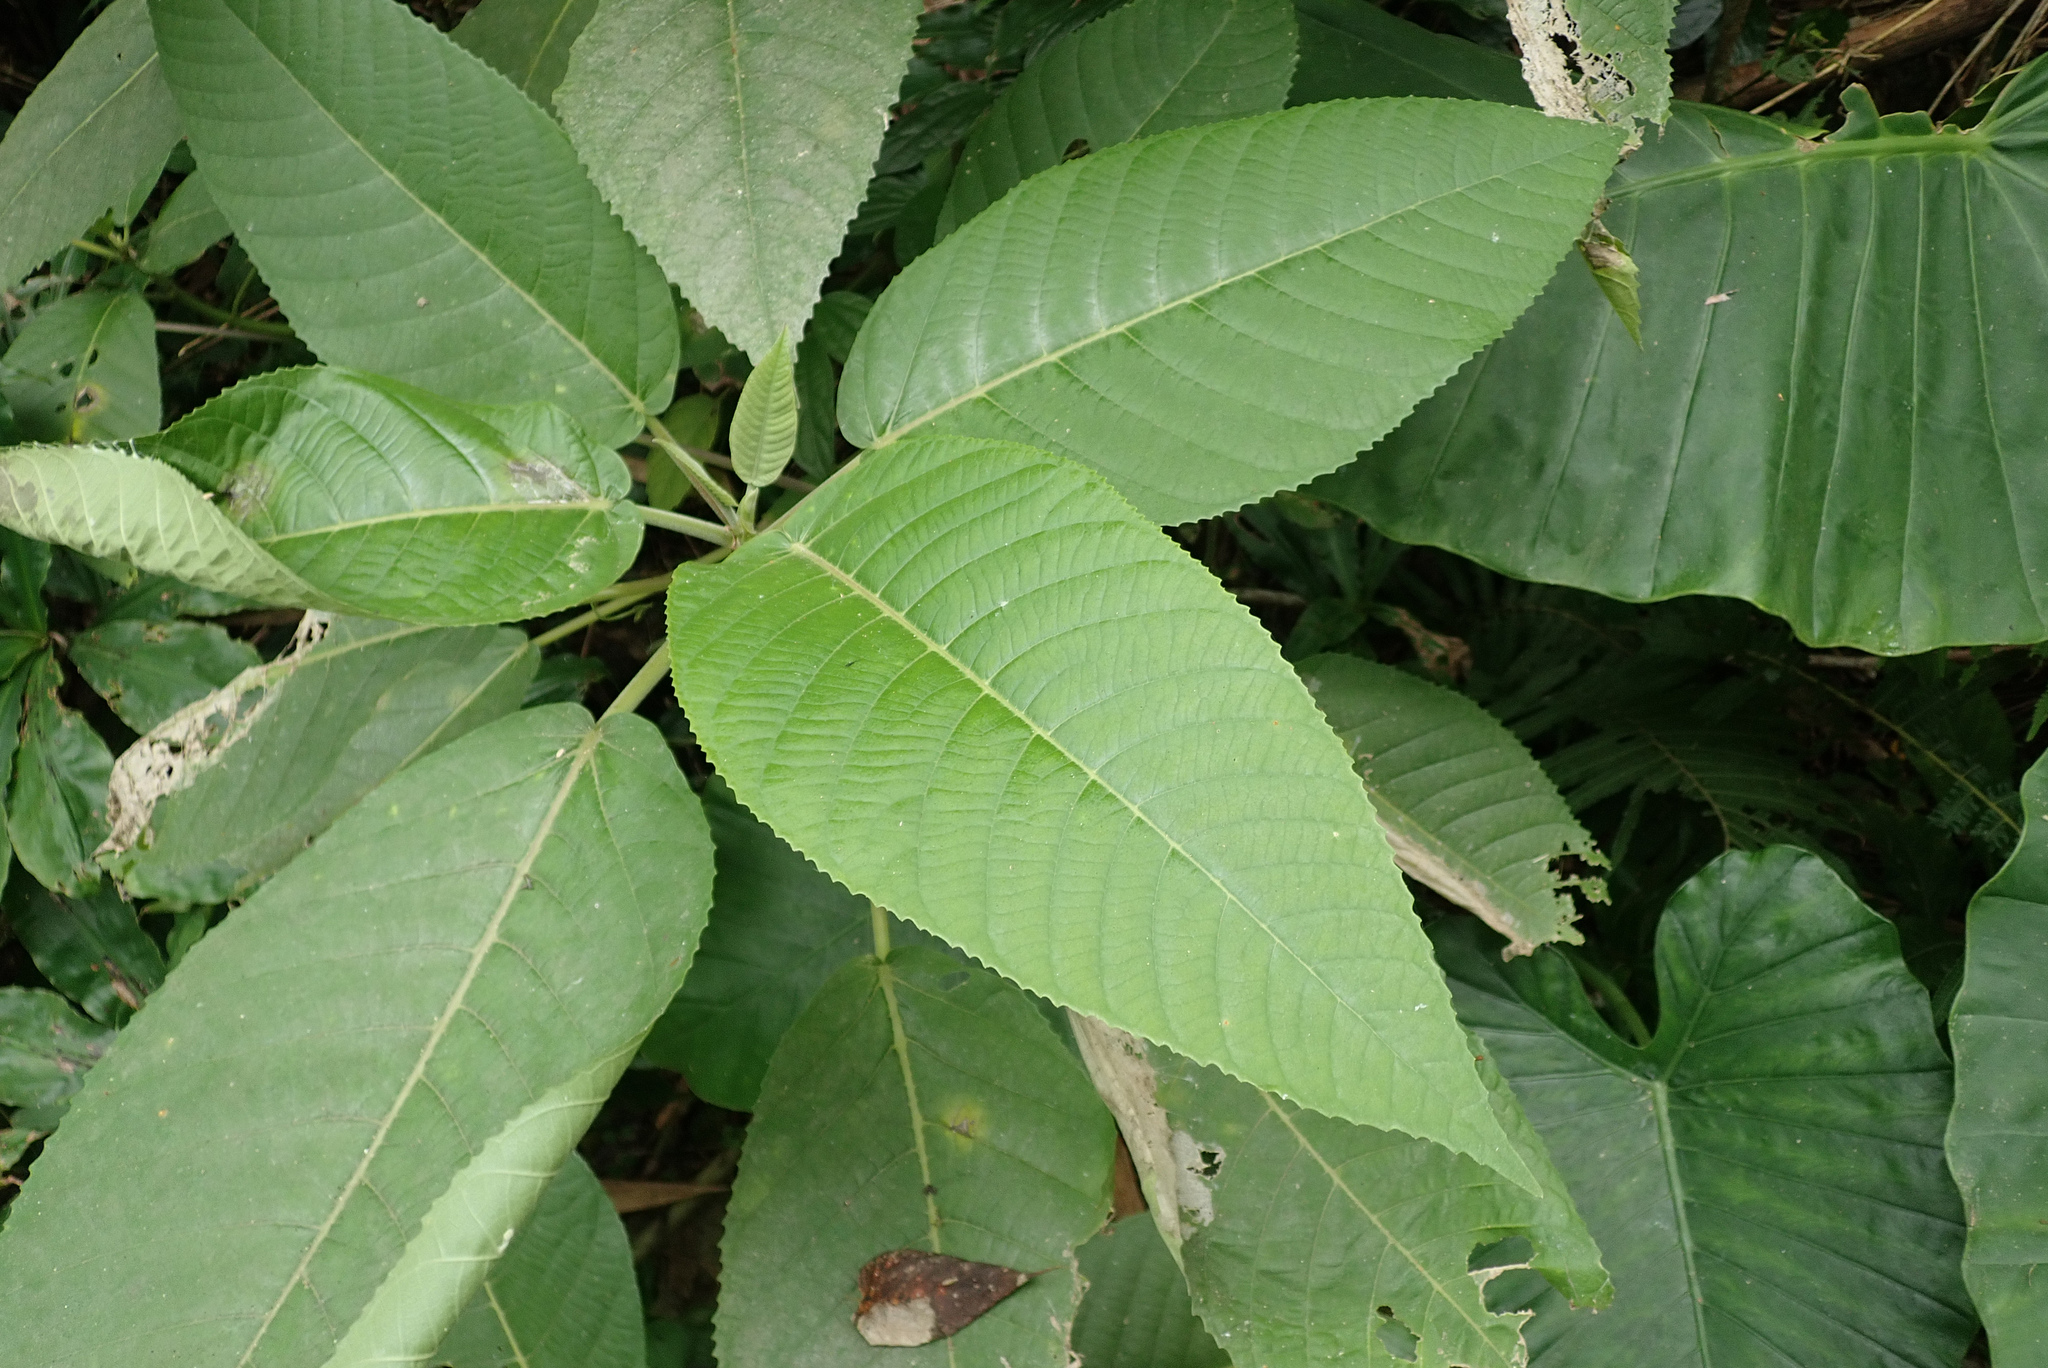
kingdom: Plantae
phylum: Tracheophyta
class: Magnoliopsida
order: Rosales
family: Urticaceae
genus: Dendrocnide
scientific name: Dendrocnide meyeniana
